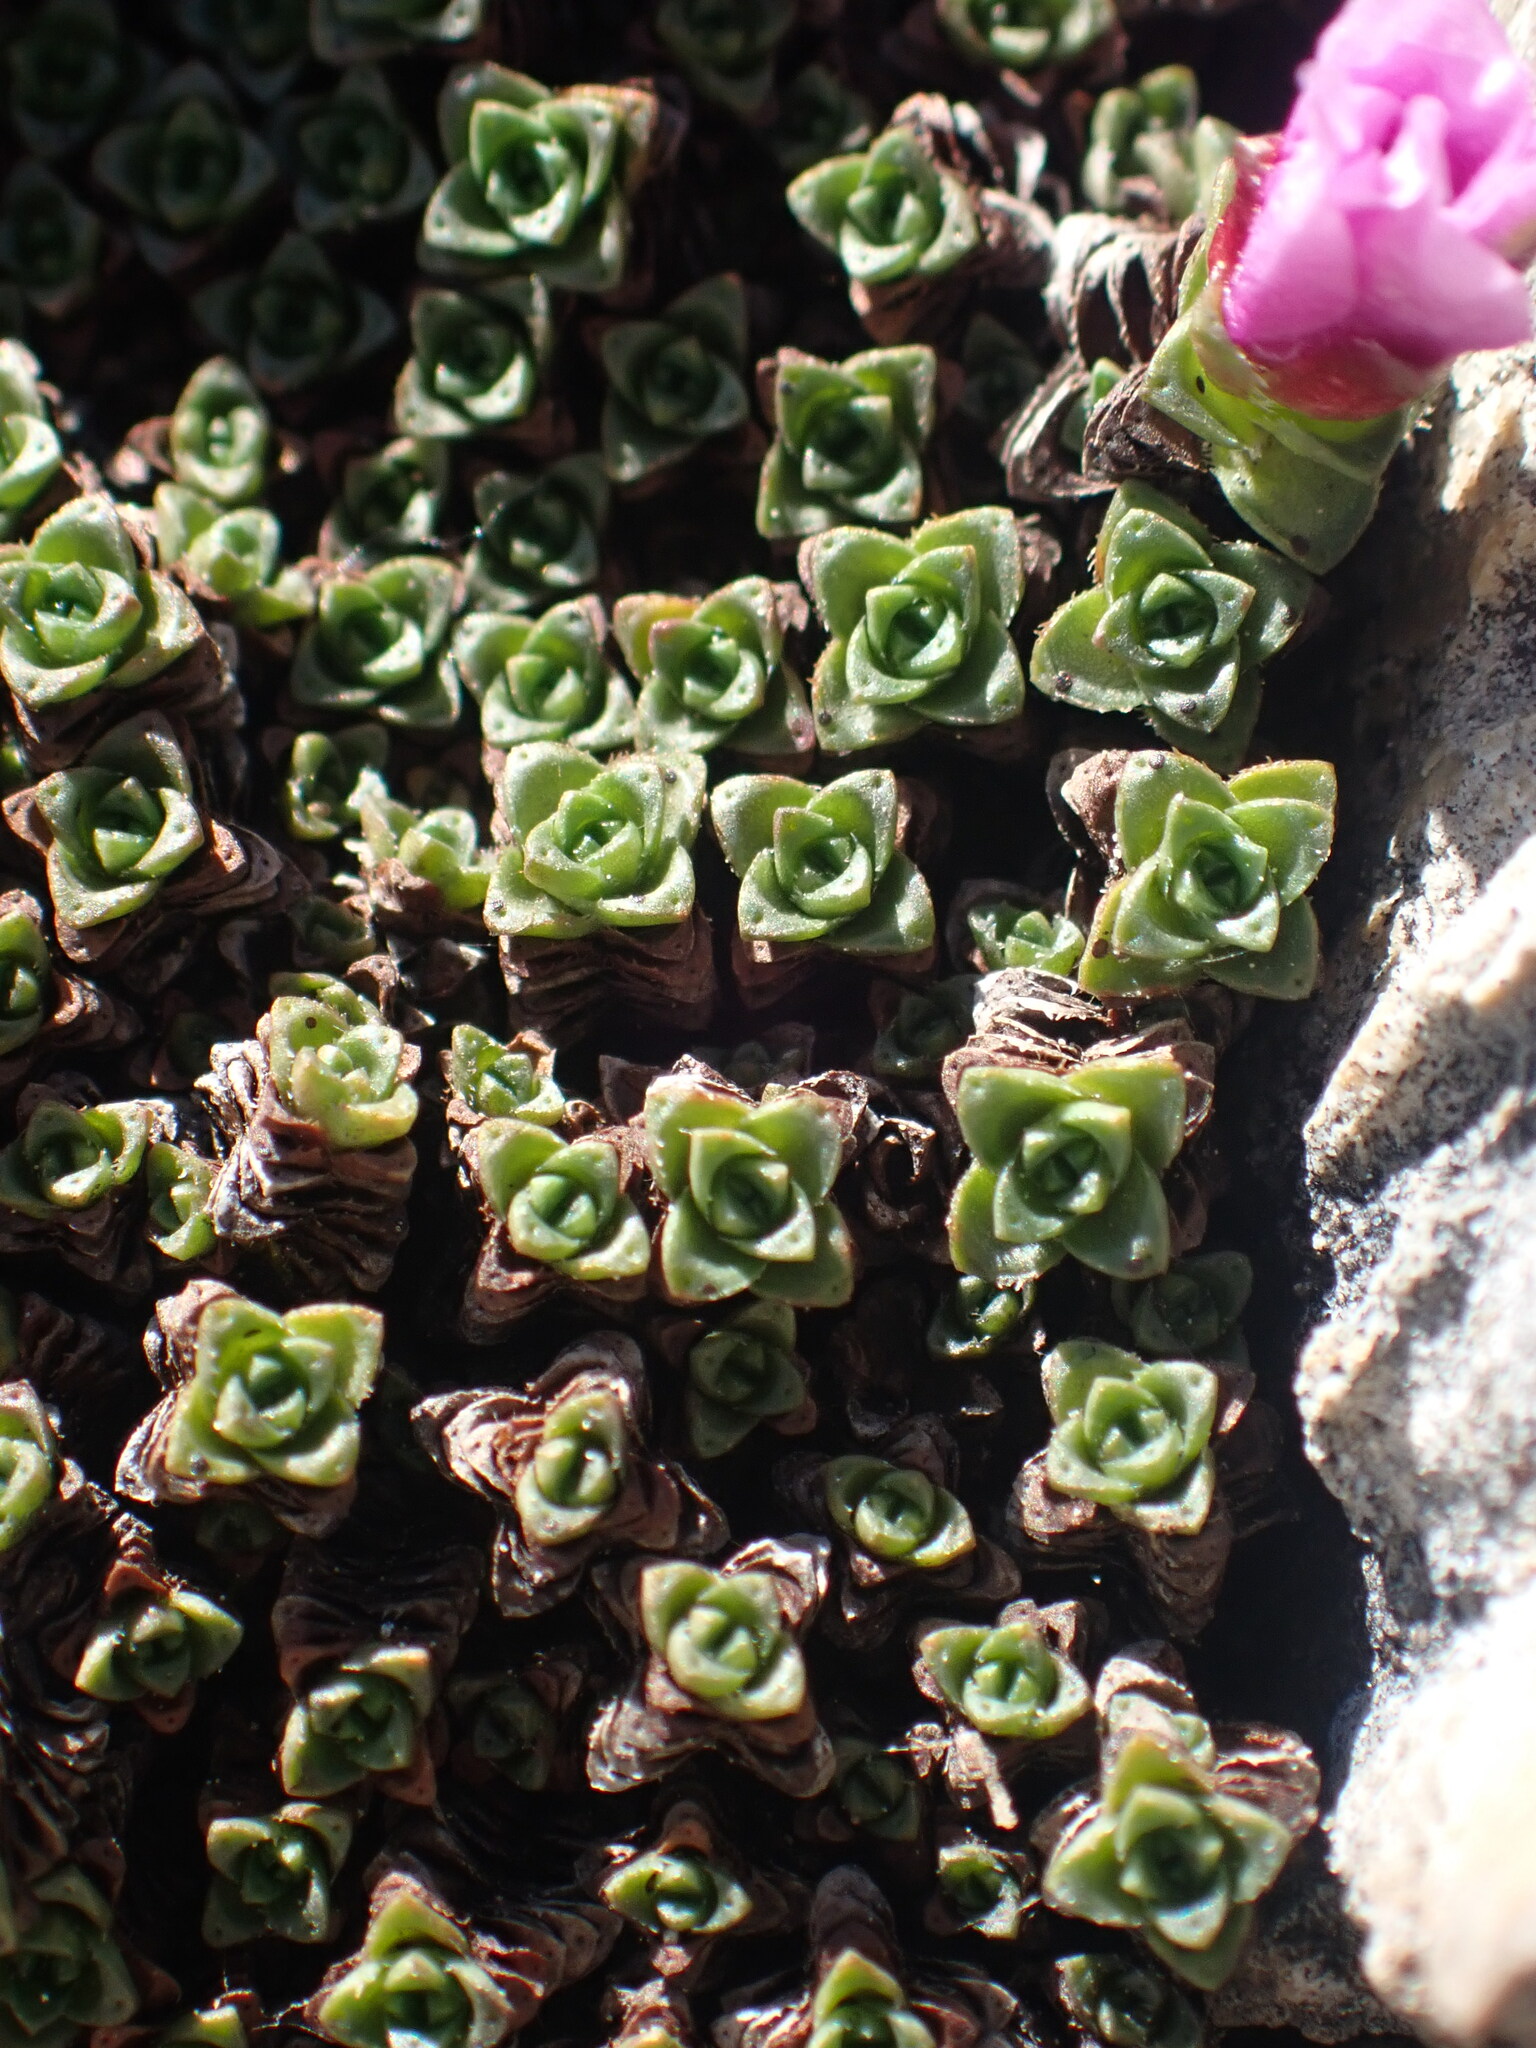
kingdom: Plantae
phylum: Tracheophyta
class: Magnoliopsida
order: Saxifragales
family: Saxifragaceae
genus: Saxifraga
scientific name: Saxifraga oppositifolia
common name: Purple saxifrage
